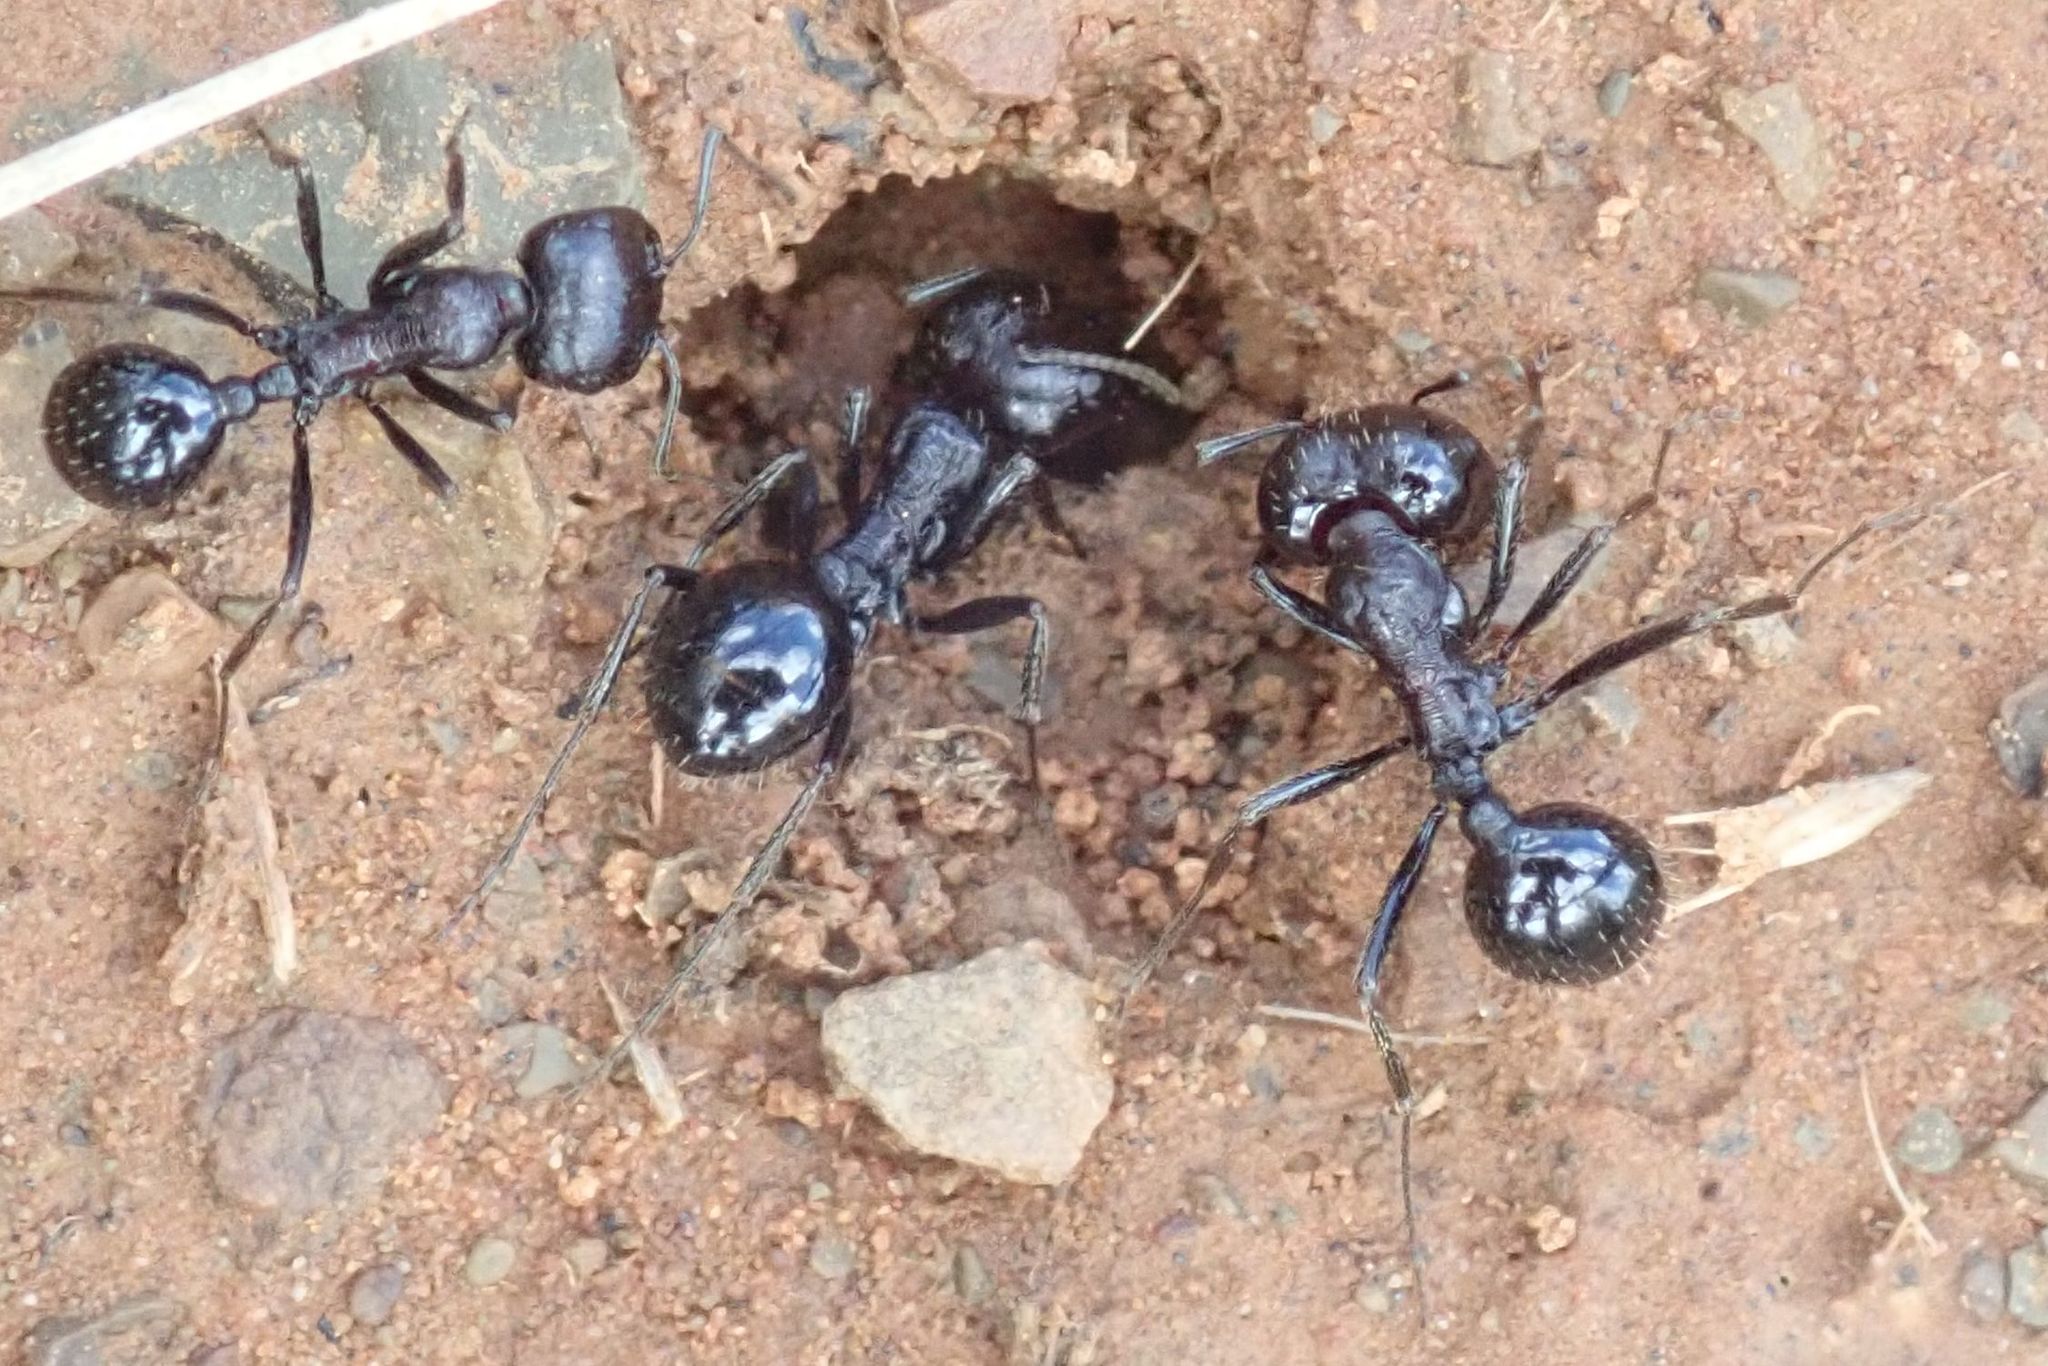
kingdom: Animalia
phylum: Arthropoda
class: Insecta
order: Hymenoptera
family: Formicidae
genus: Messor
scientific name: Messor capensis
